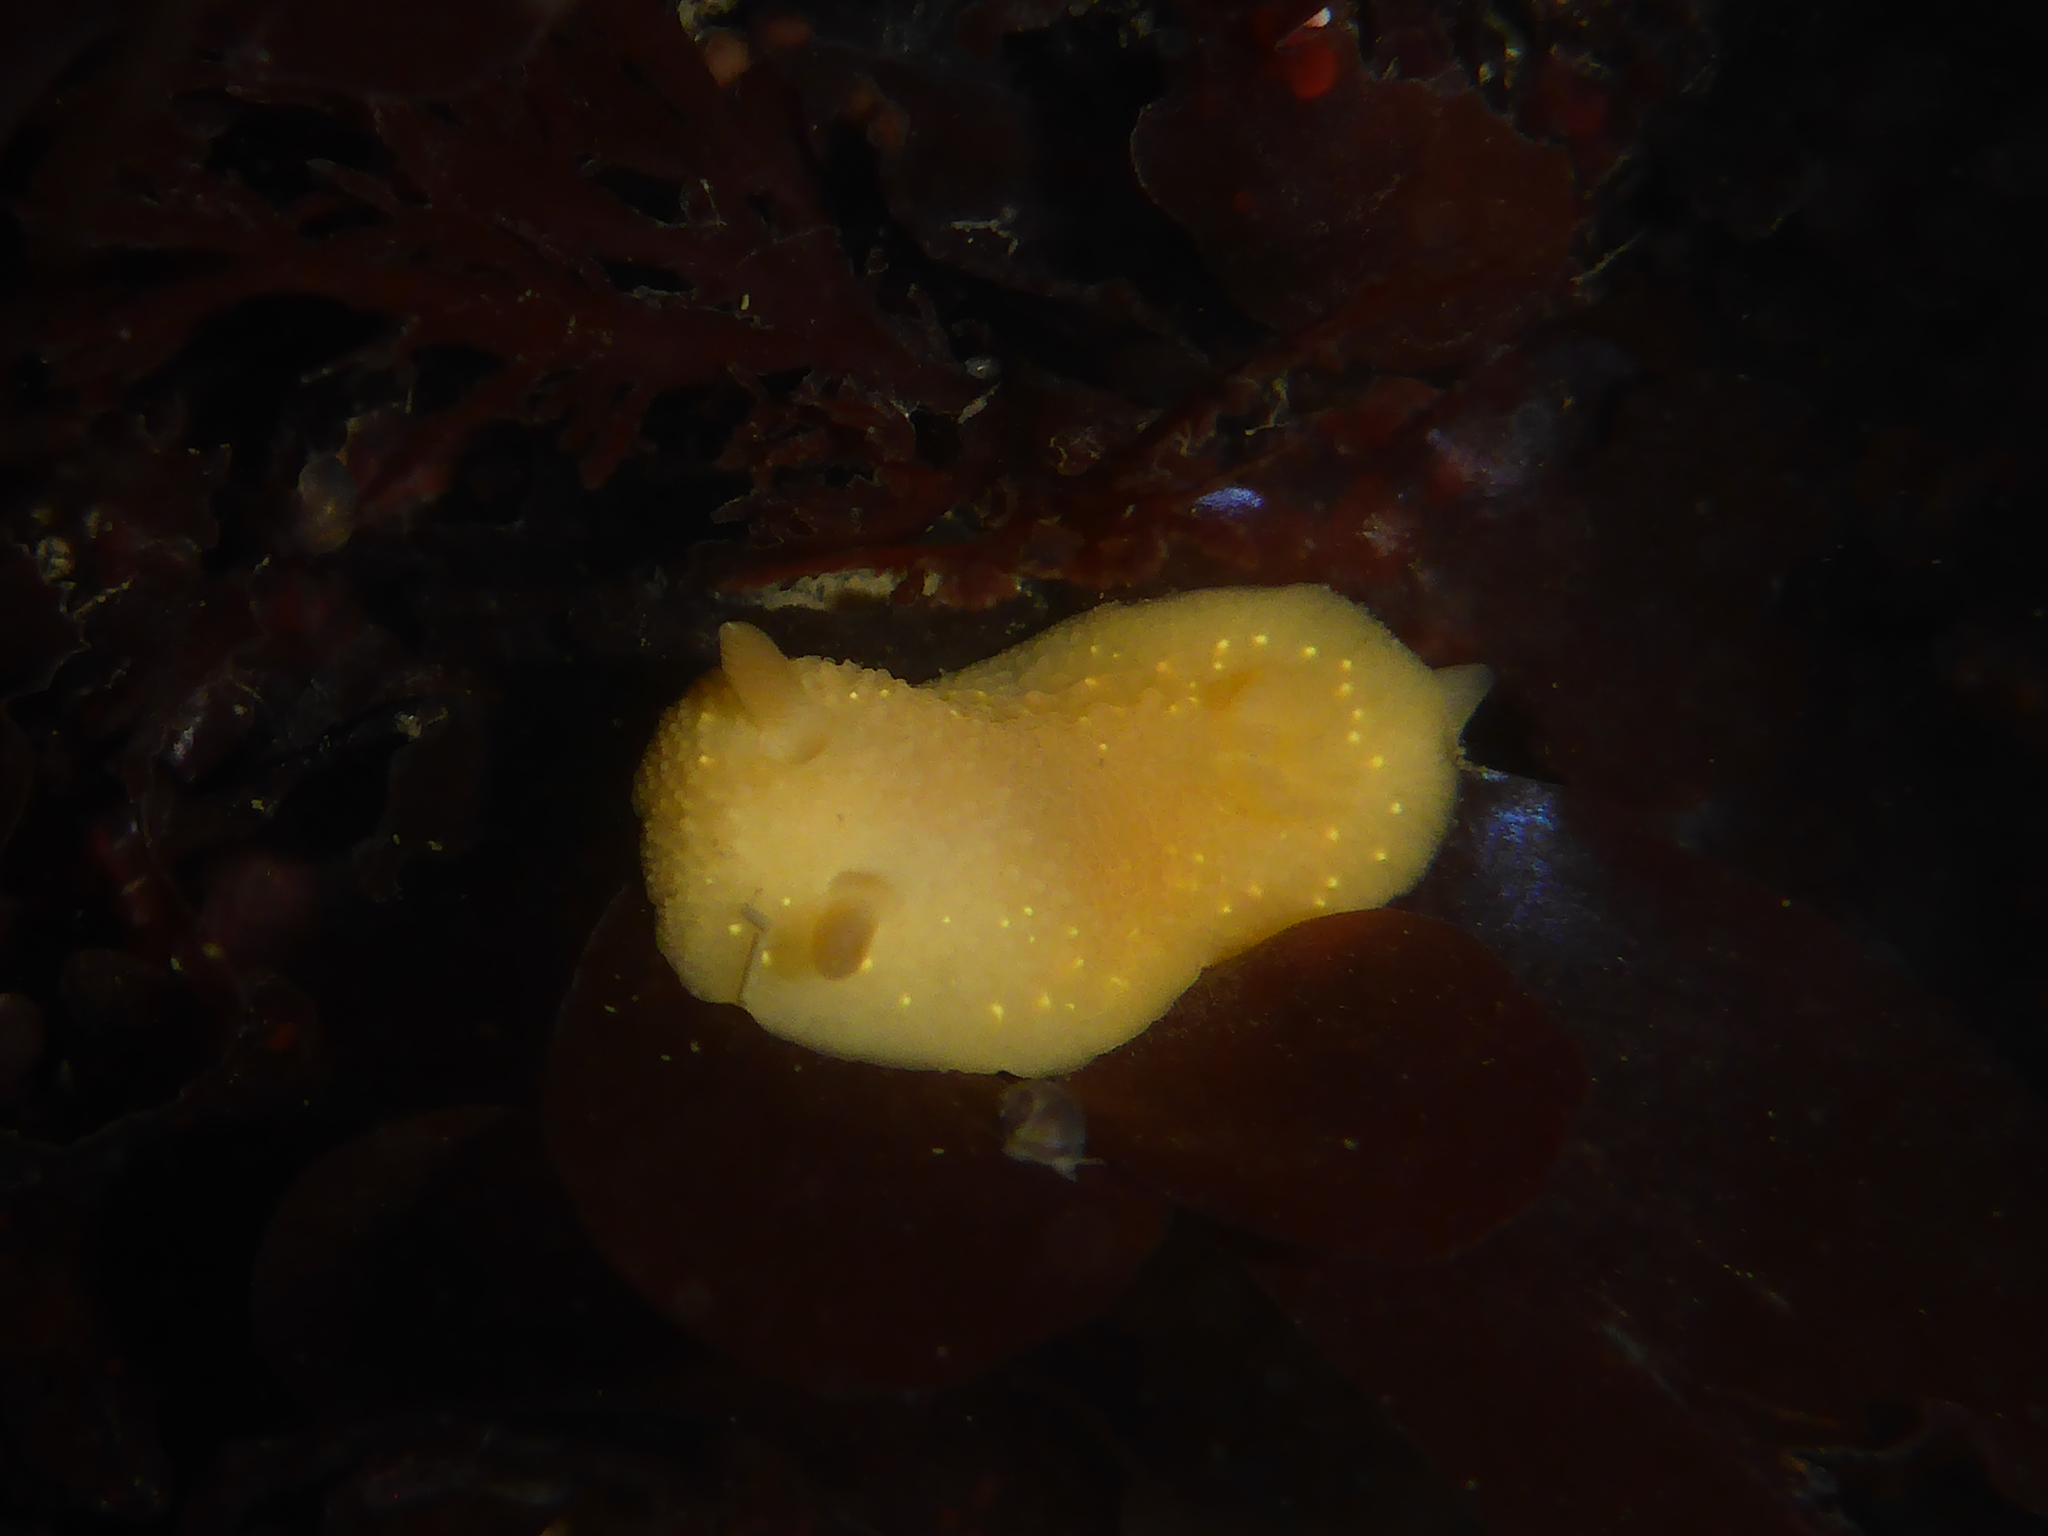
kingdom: Animalia
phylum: Mollusca
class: Gastropoda
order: Nudibranchia
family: Cadlinidae
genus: Cadlina
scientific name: Cadlina modesta
